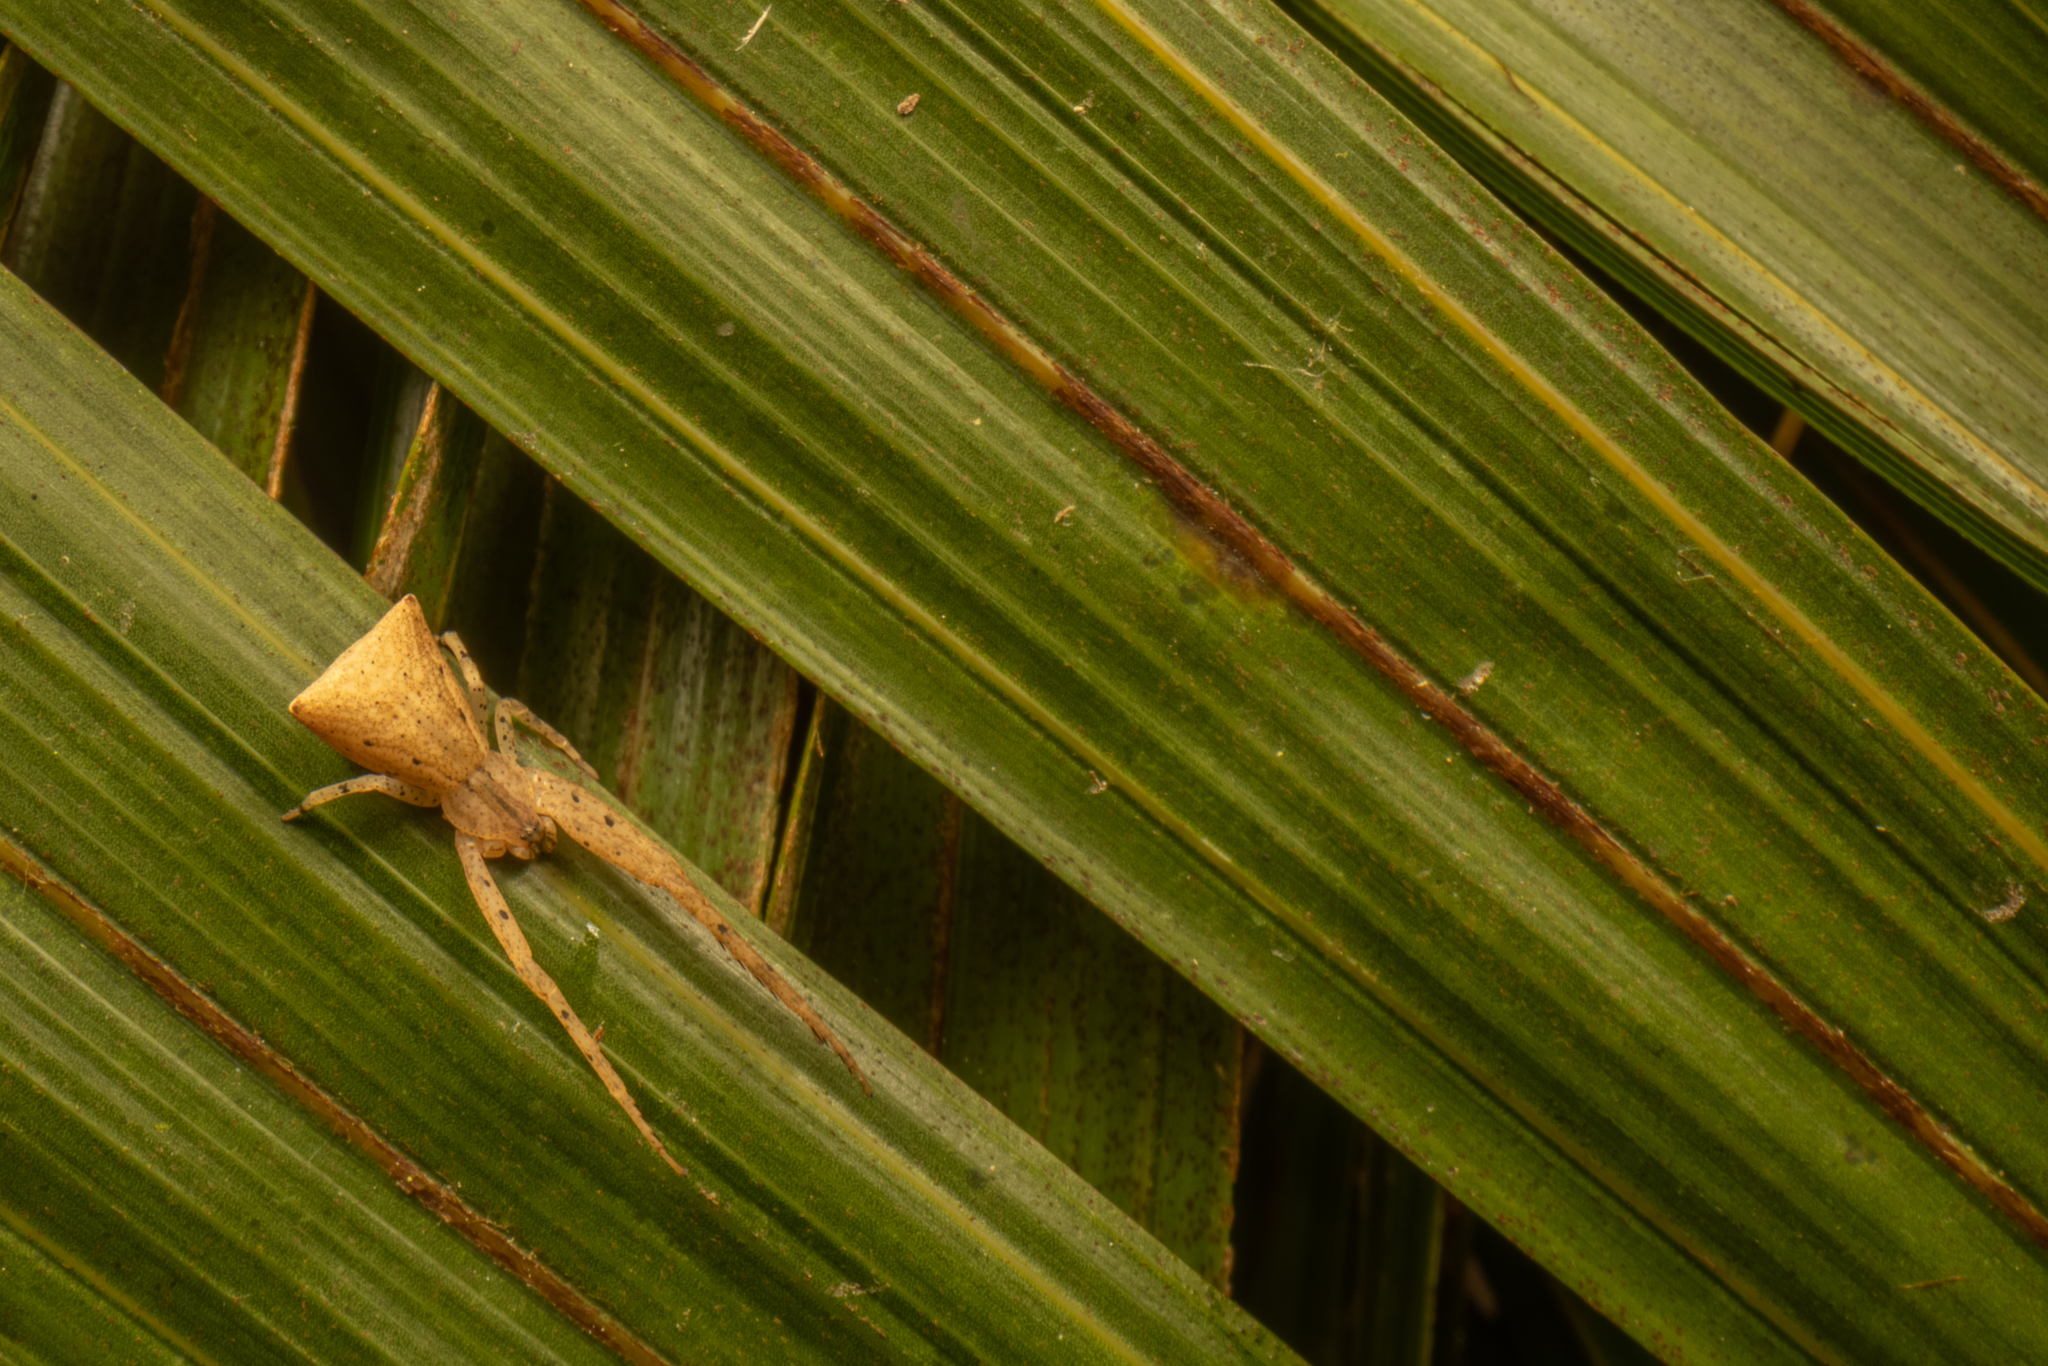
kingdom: Animalia
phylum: Arthropoda
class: Arachnida
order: Araneae
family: Thomisidae
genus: Sidymella
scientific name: Sidymella trapezia
